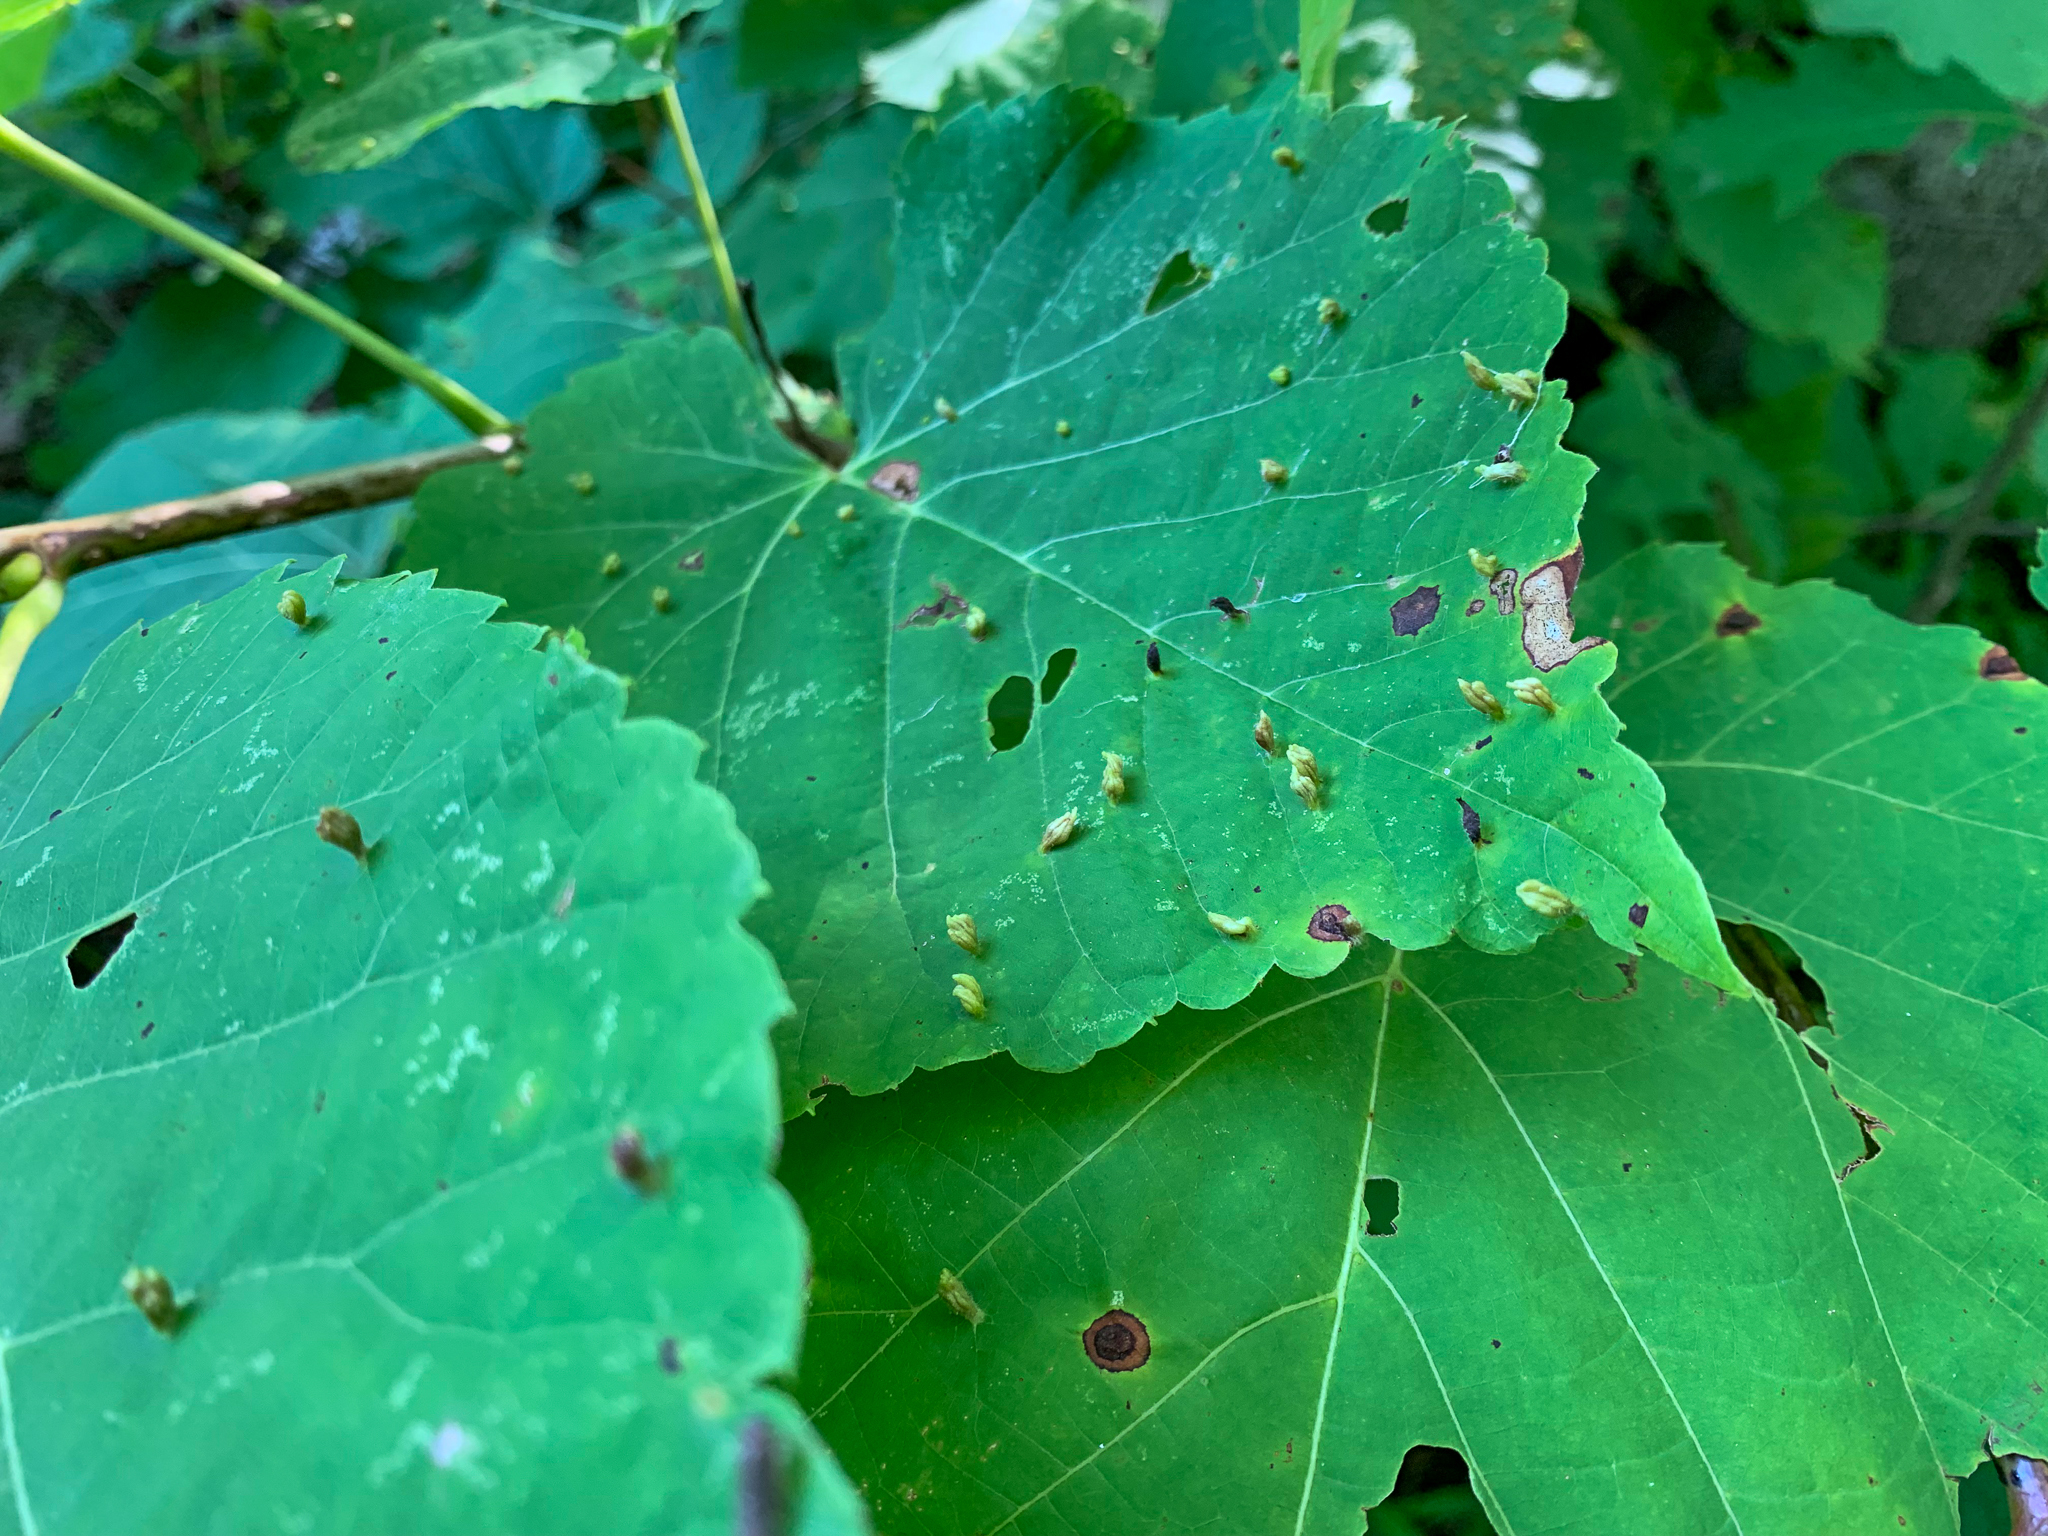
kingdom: Animalia
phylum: Arthropoda
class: Arachnida
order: Trombidiformes
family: Eriophyidae
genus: Eriophyes
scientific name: Eriophyes tiliae
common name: Red nail gall mite
